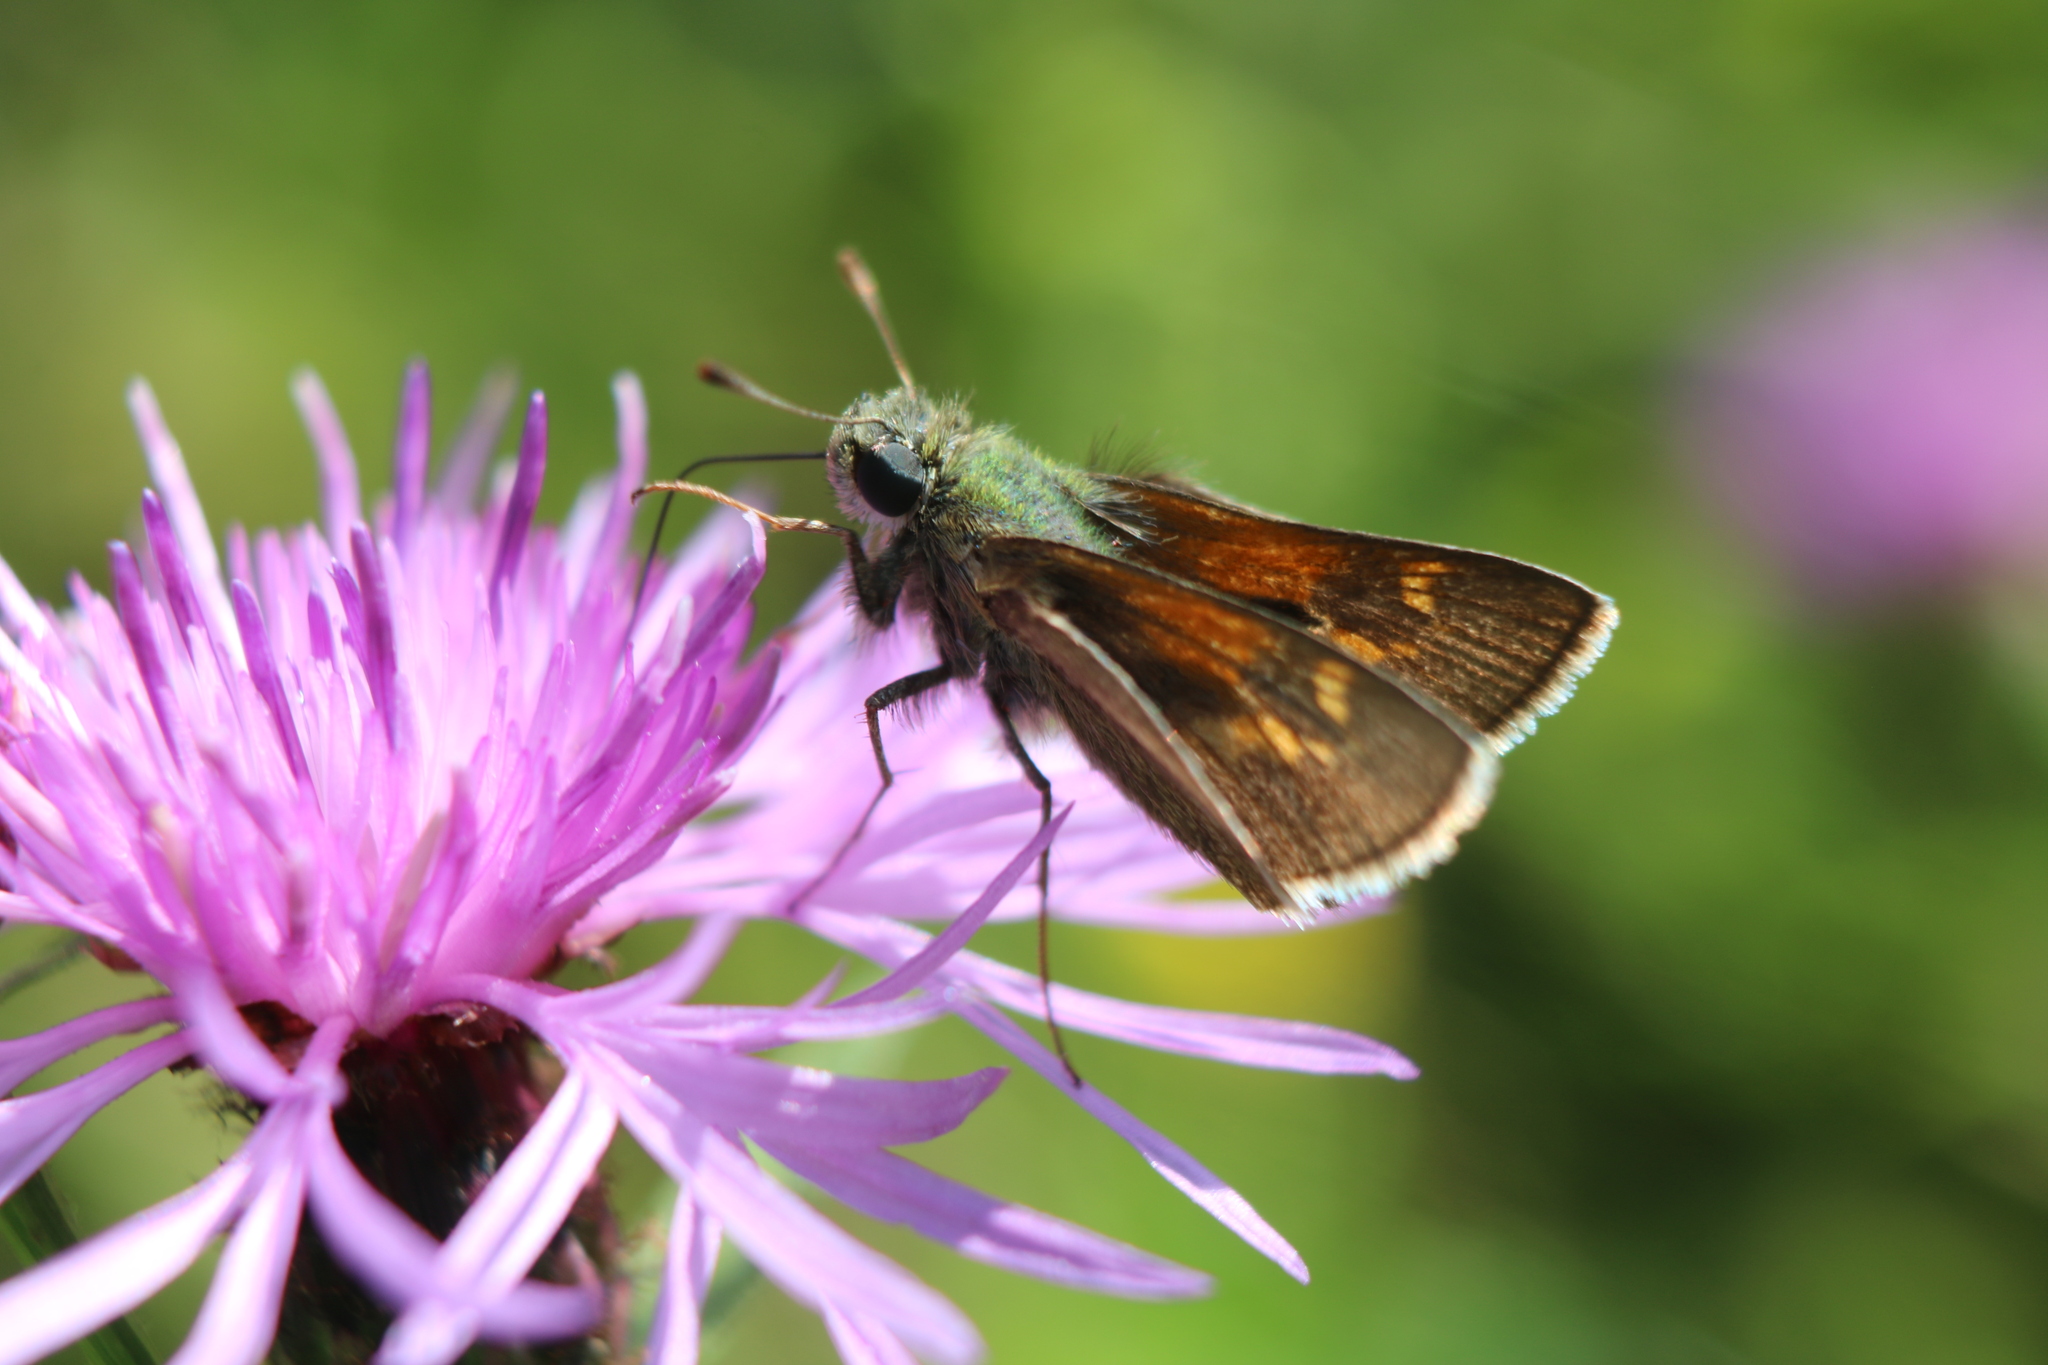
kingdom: Animalia
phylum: Arthropoda
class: Insecta
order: Lepidoptera
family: Hesperiidae
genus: Polites
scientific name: Polites themistocles
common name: Tawny-edged skipper
